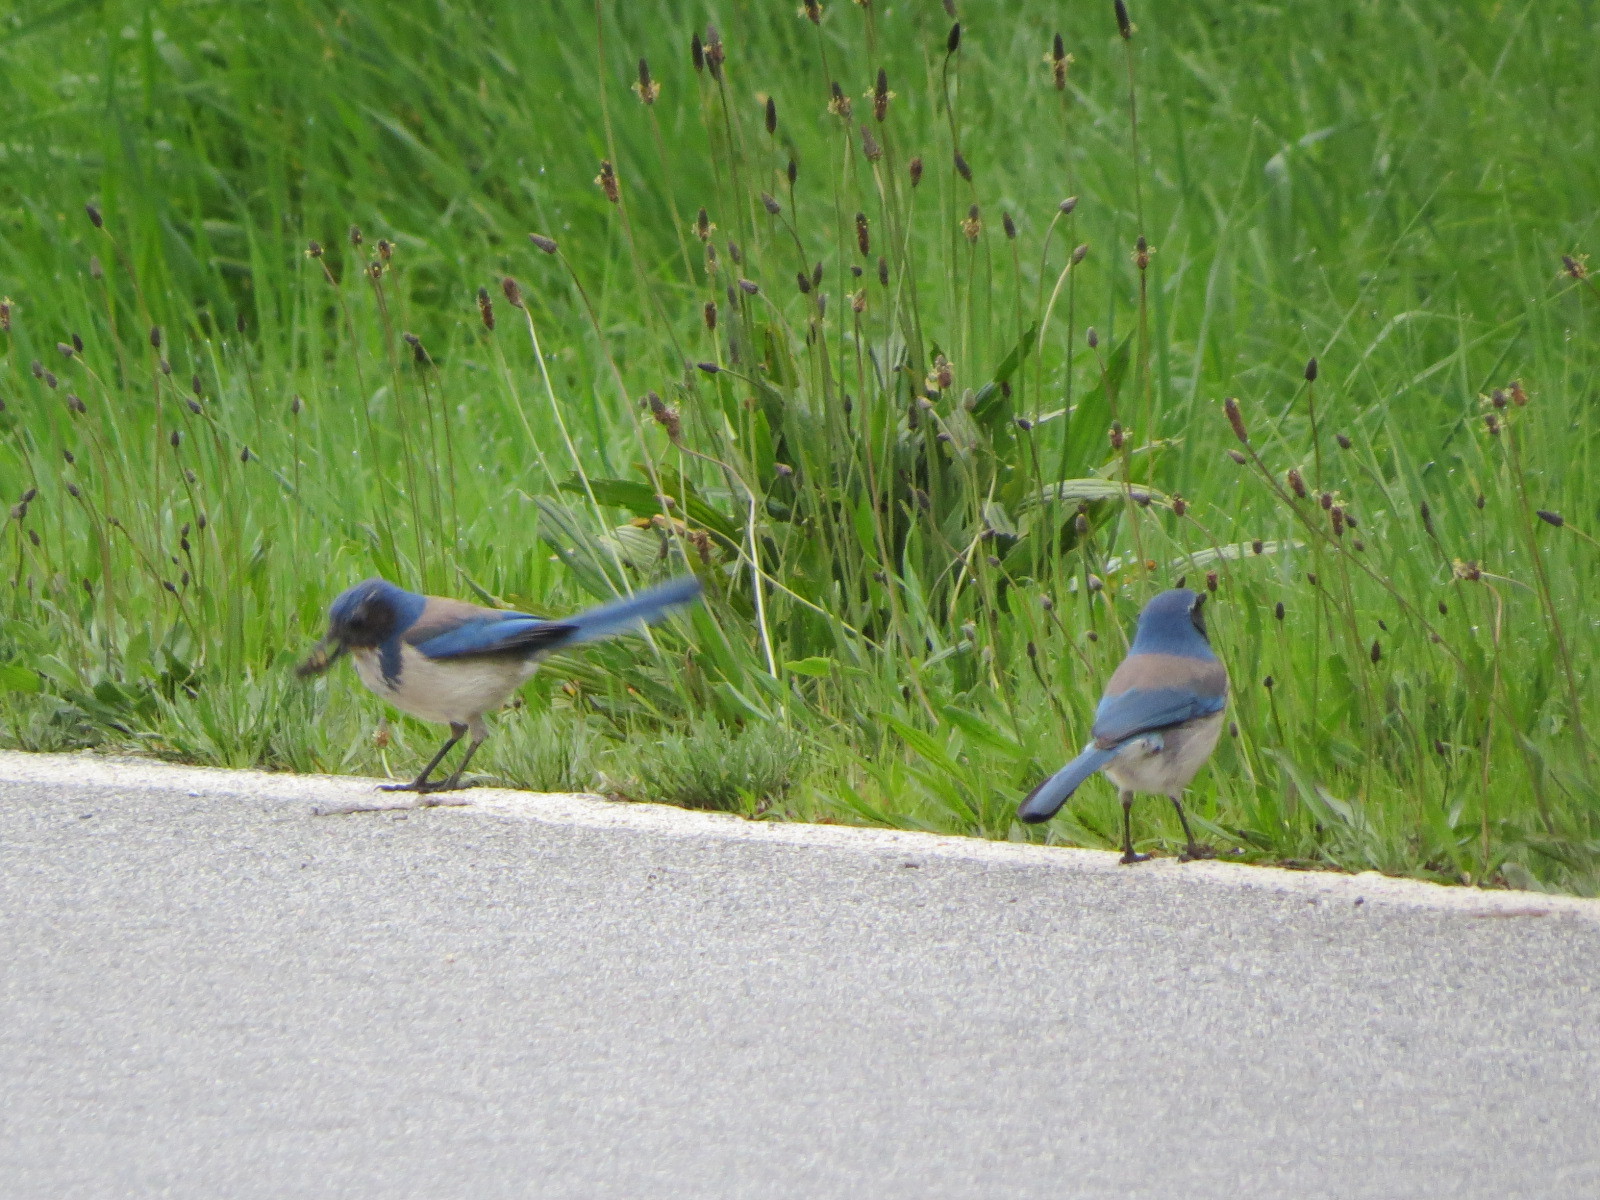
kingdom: Animalia
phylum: Chordata
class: Aves
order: Passeriformes
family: Corvidae
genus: Aphelocoma
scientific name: Aphelocoma californica
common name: California scrub-jay
